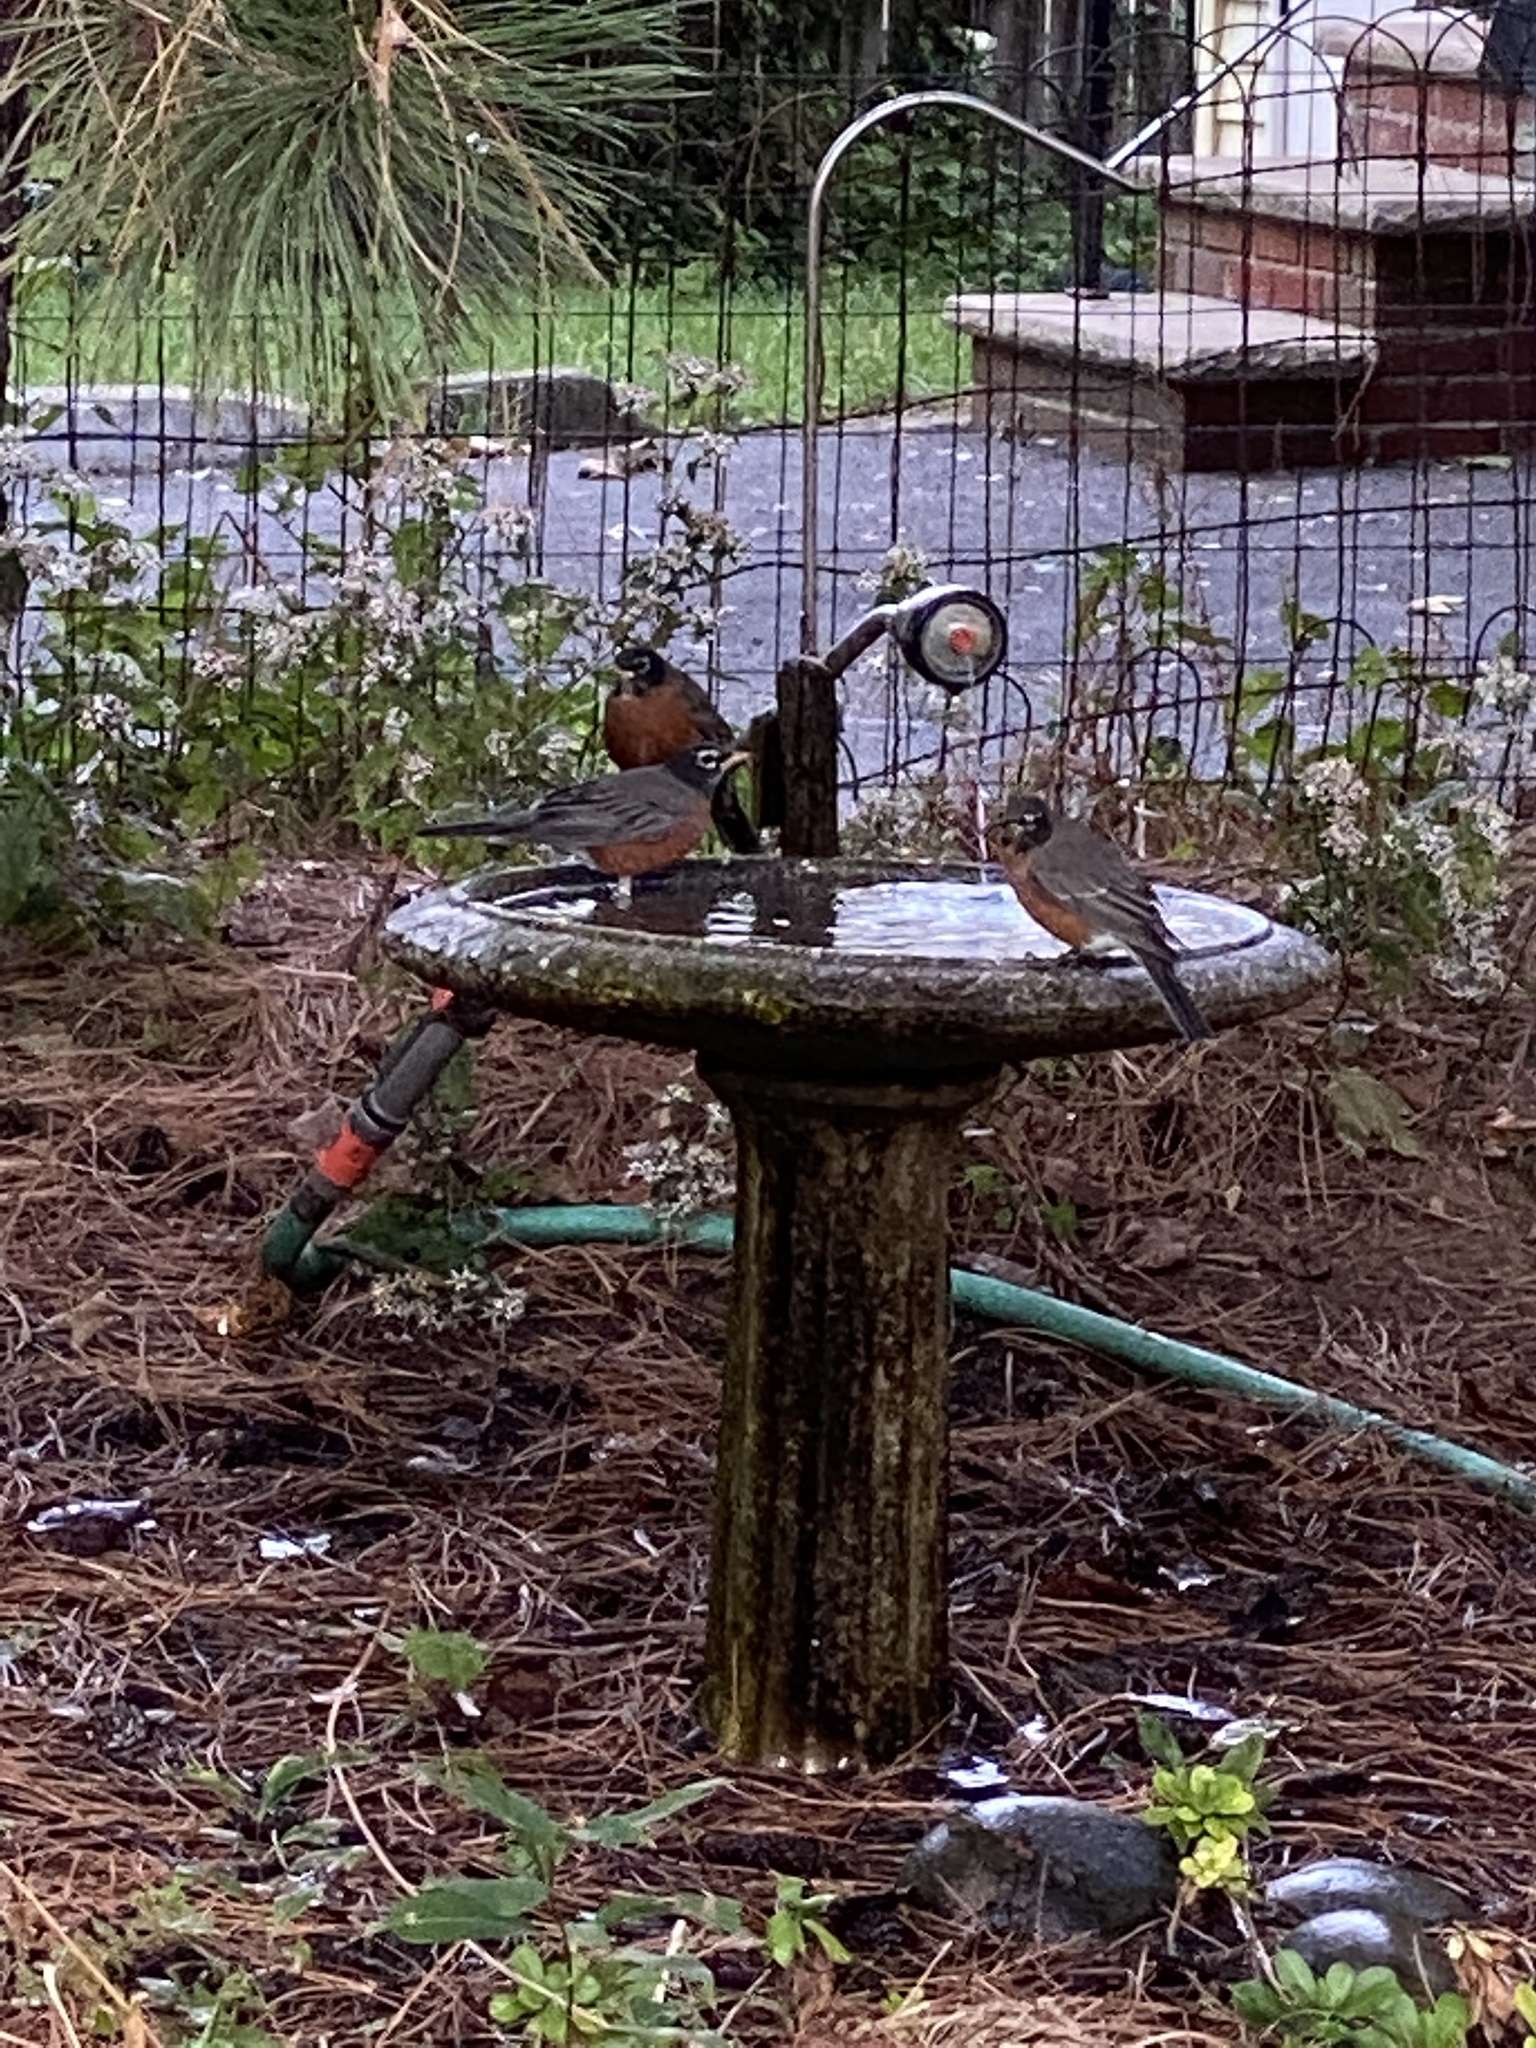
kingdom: Animalia
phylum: Chordata
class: Aves
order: Passeriformes
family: Turdidae
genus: Turdus
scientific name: Turdus migratorius
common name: American robin
